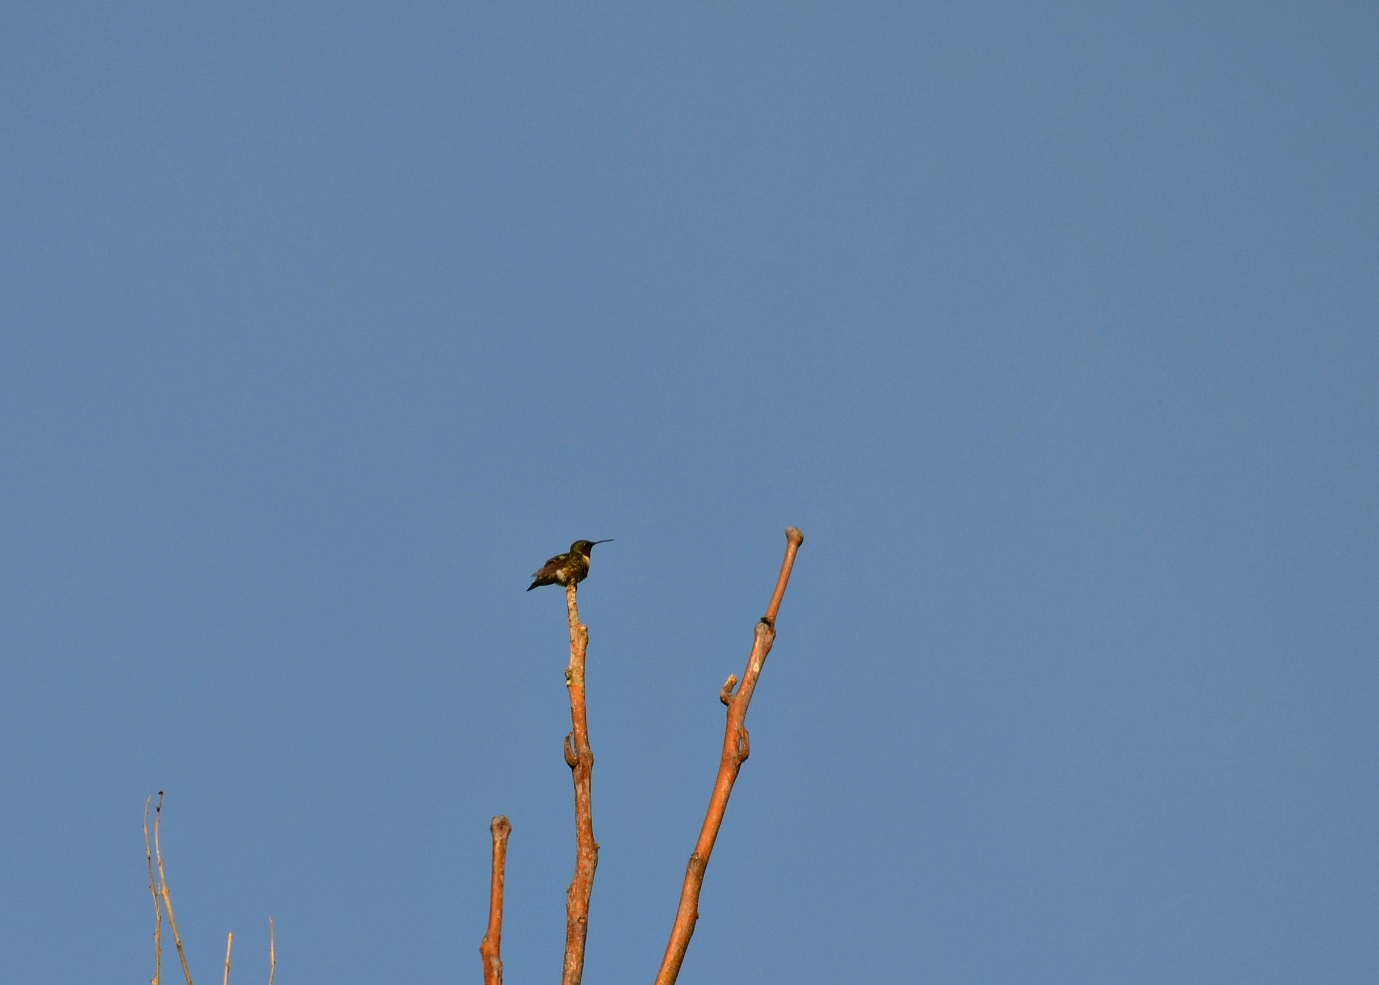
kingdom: Animalia
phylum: Chordata
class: Aves
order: Apodiformes
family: Trochilidae
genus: Archilochus
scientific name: Archilochus colubris
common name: Ruby-throated hummingbird
